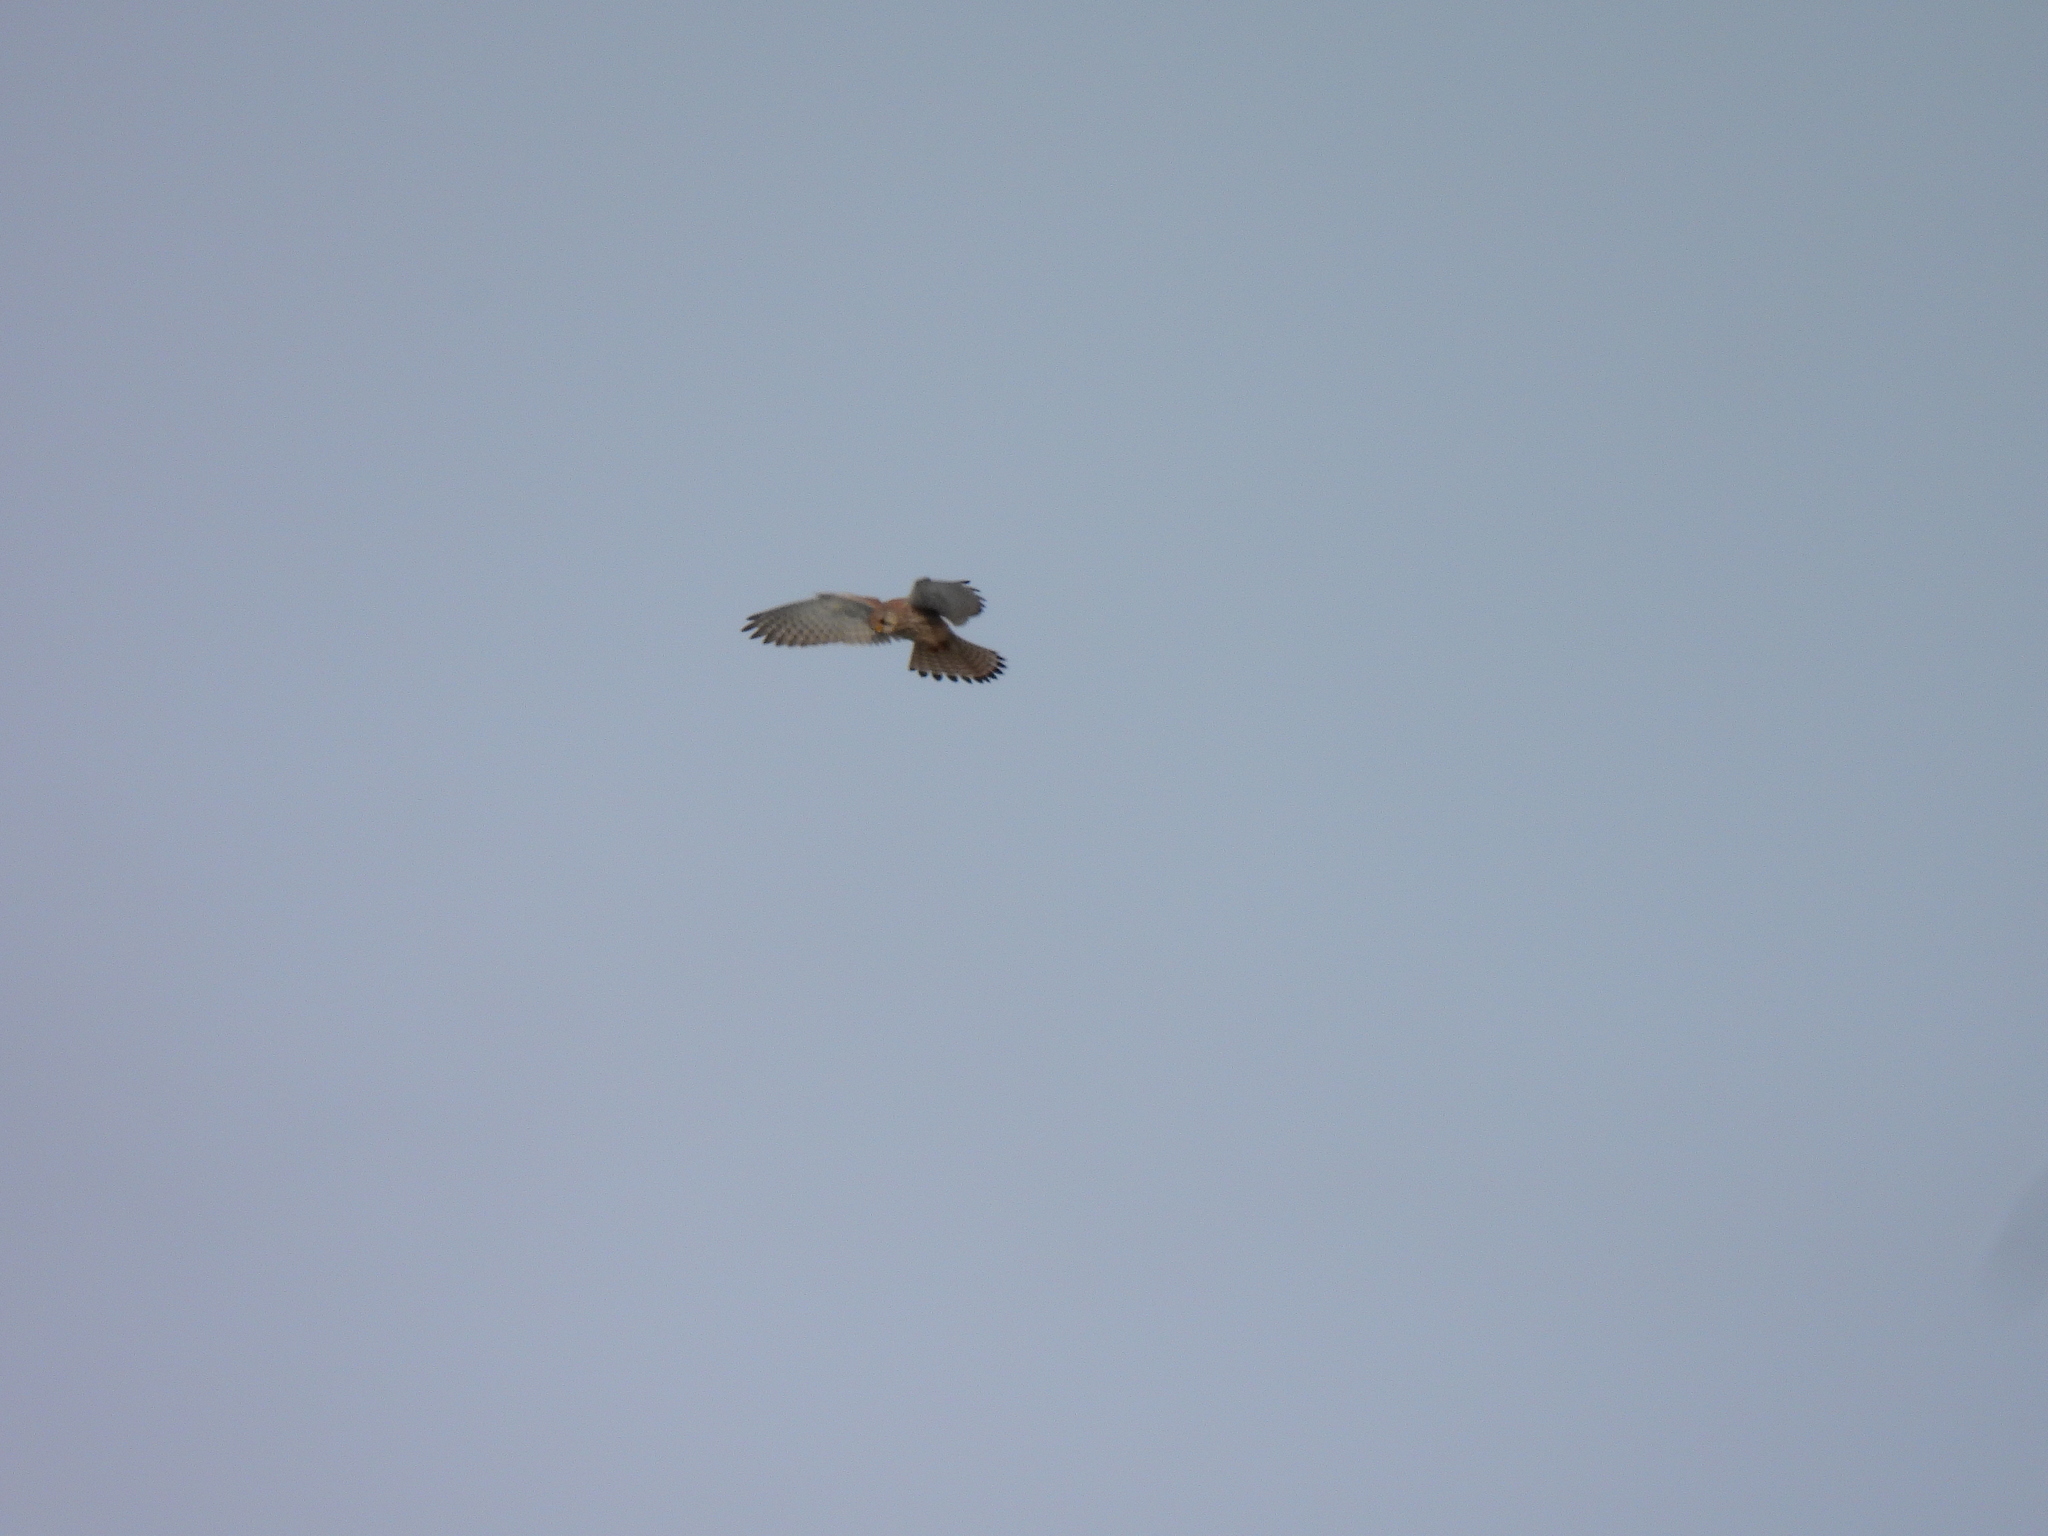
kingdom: Animalia
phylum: Chordata
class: Aves
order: Falconiformes
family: Falconidae
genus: Falco
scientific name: Falco tinnunculus
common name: Common kestrel
